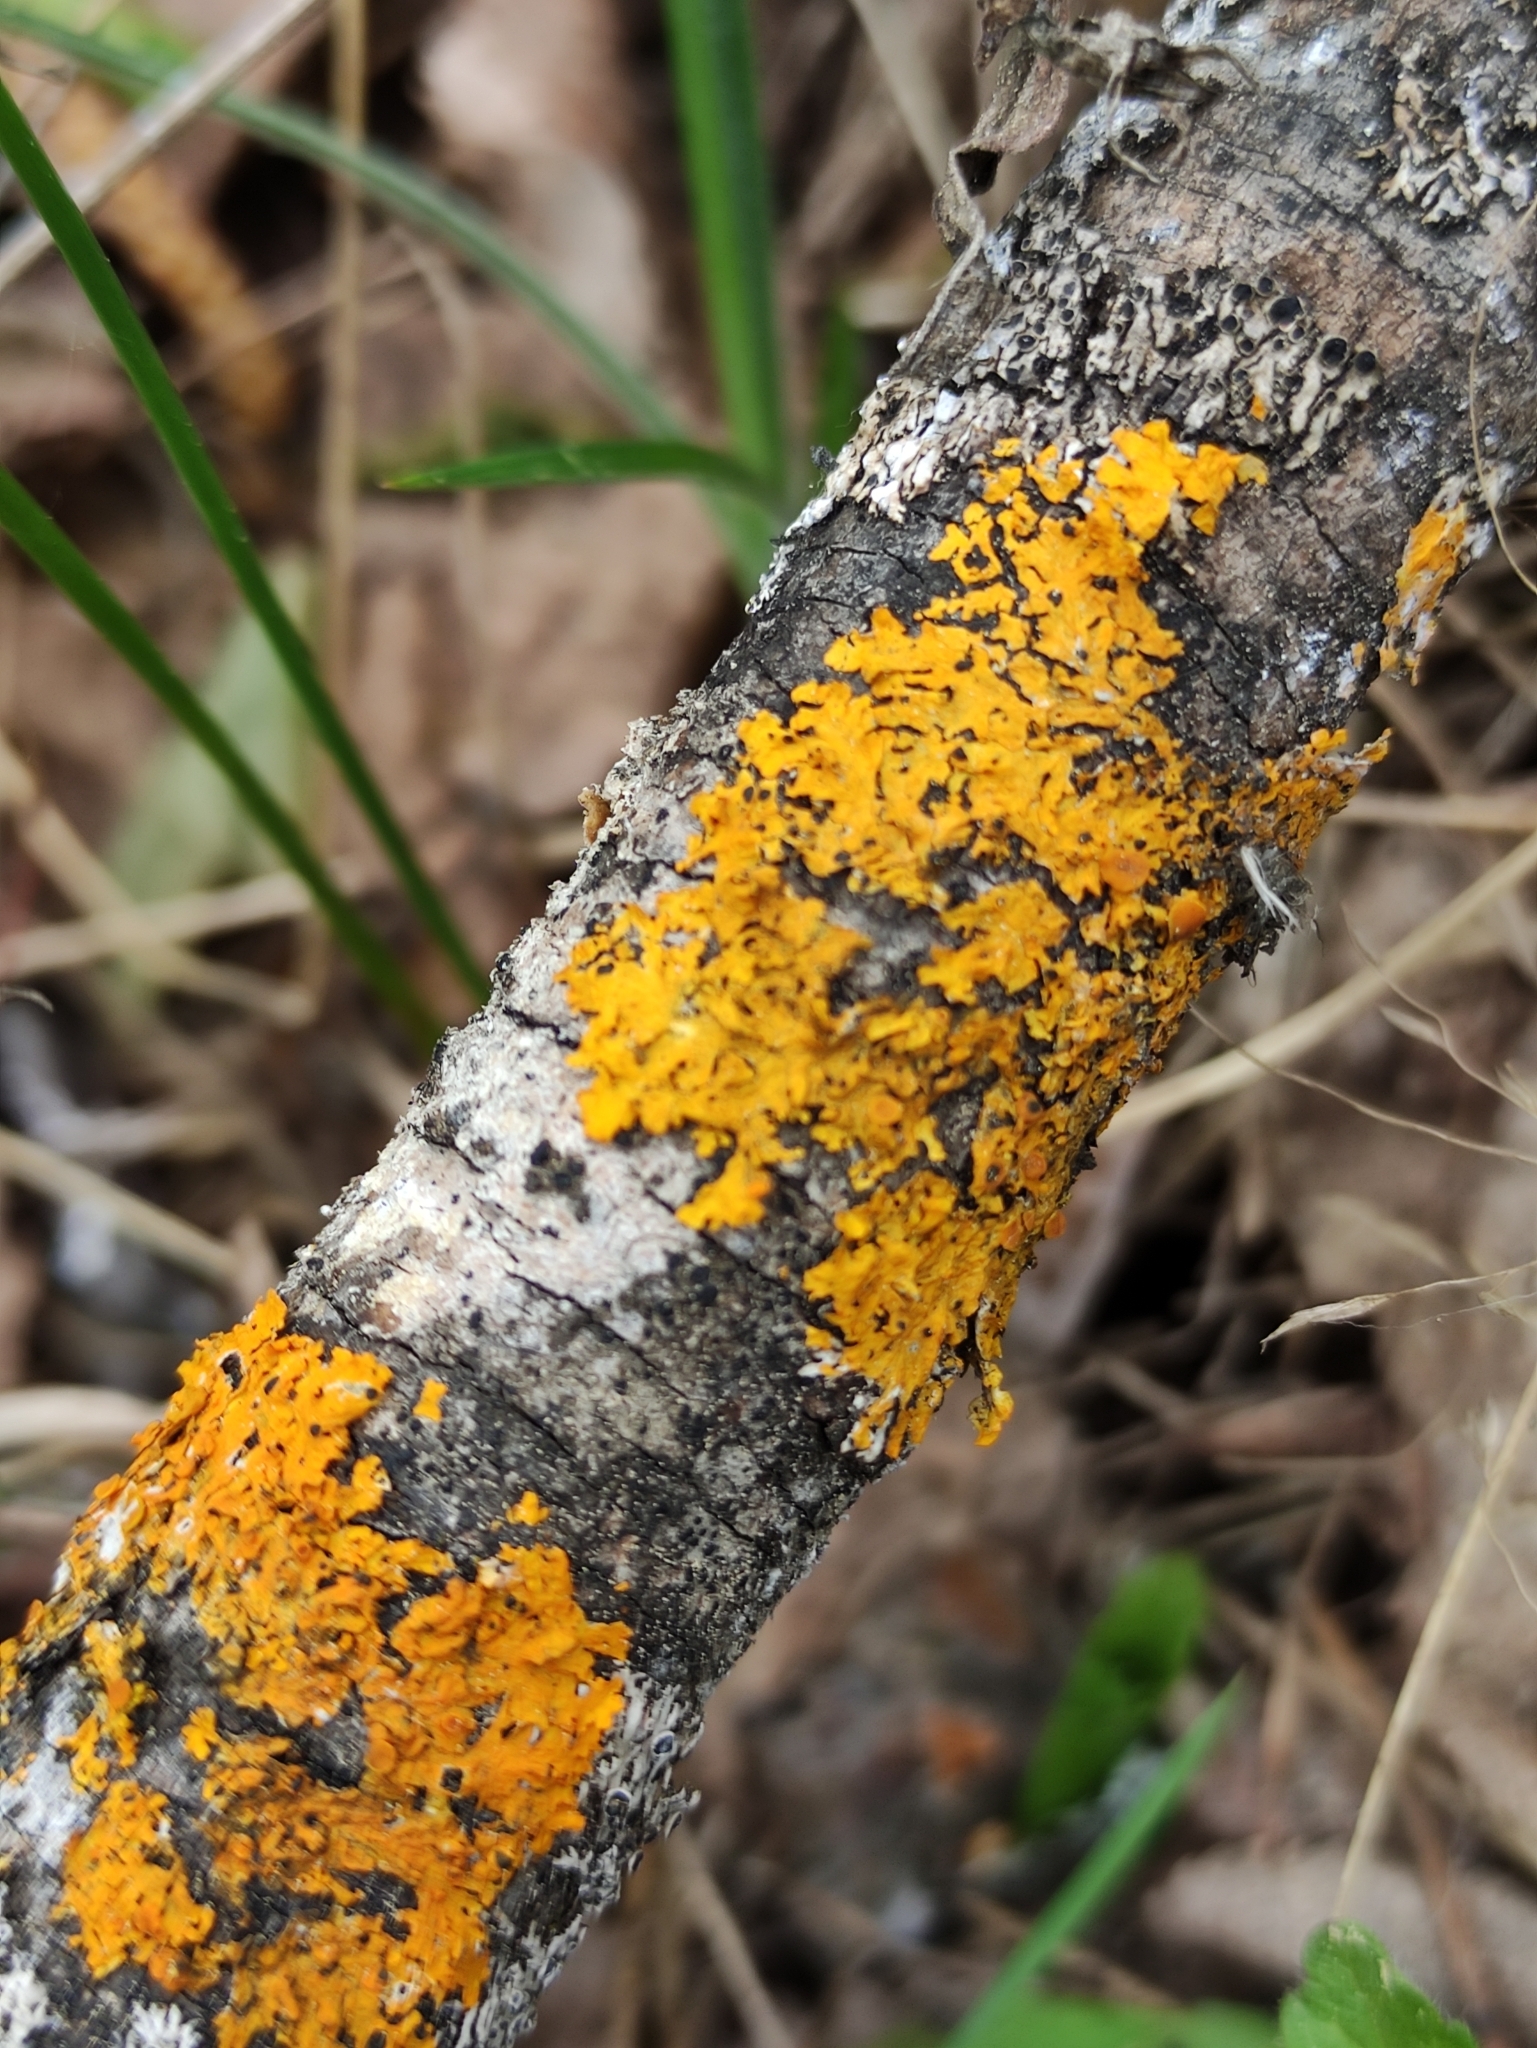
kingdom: Fungi
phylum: Ascomycota
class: Lecanoromycetes
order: Teloschistales
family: Teloschistaceae
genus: Xanthoria
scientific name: Xanthoria parietina
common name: Common orange lichen
